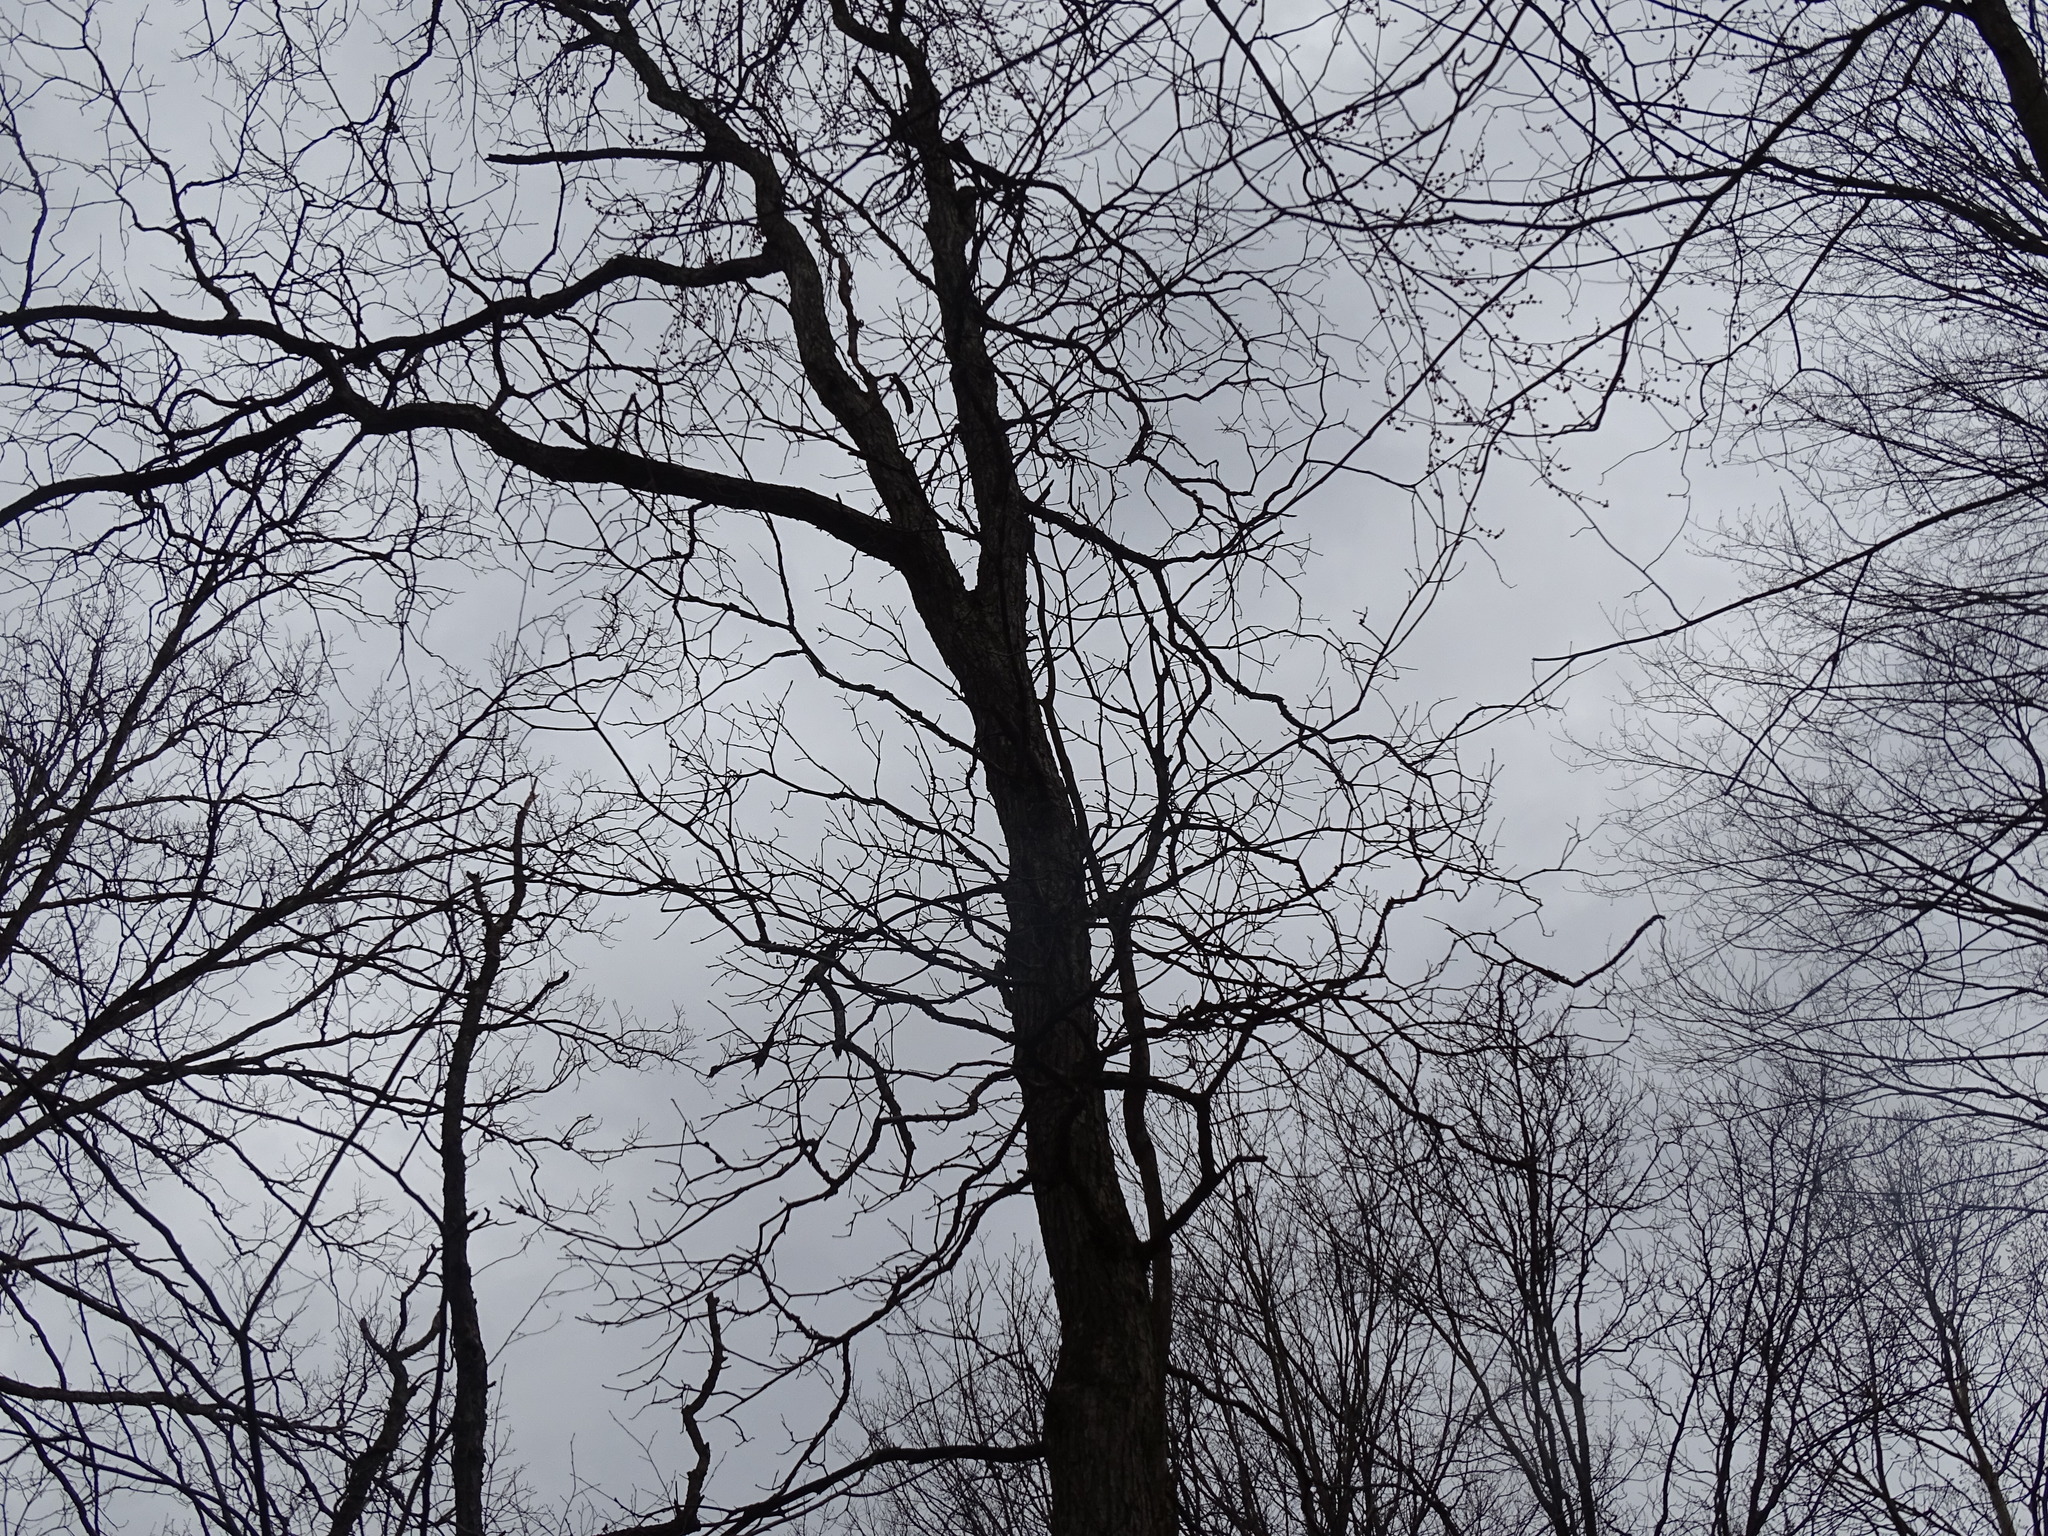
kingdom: Plantae
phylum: Tracheophyta
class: Magnoliopsida
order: Fagales
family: Fagaceae
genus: Quercus
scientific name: Quercus bicolor
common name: Swamp white oak
